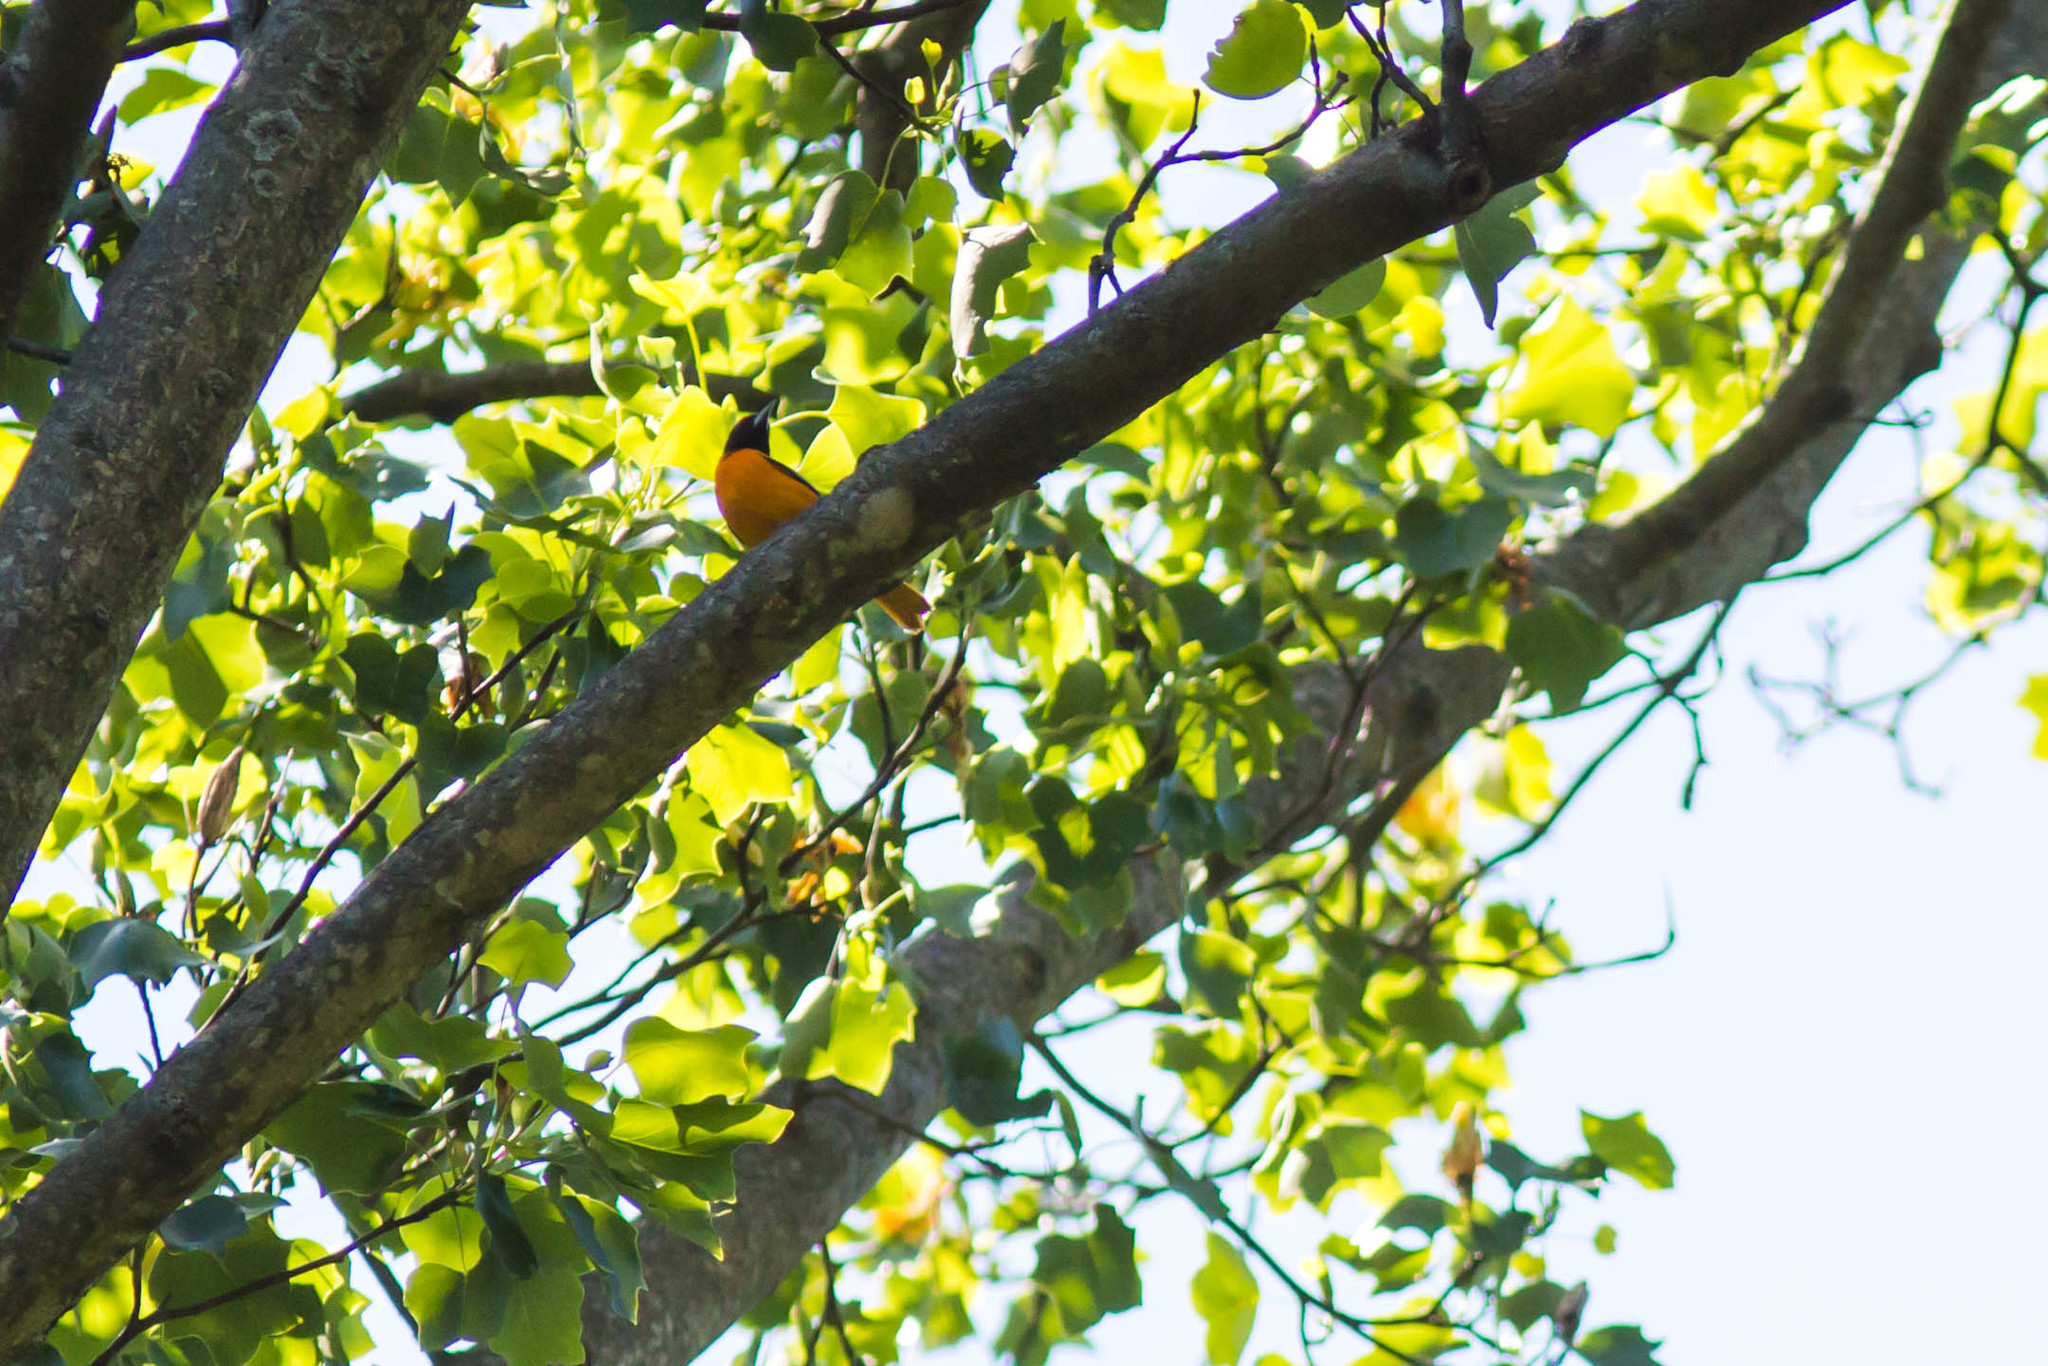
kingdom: Animalia
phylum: Chordata
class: Aves
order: Passeriformes
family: Icteridae
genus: Icterus
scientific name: Icterus galbula
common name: Baltimore oriole
